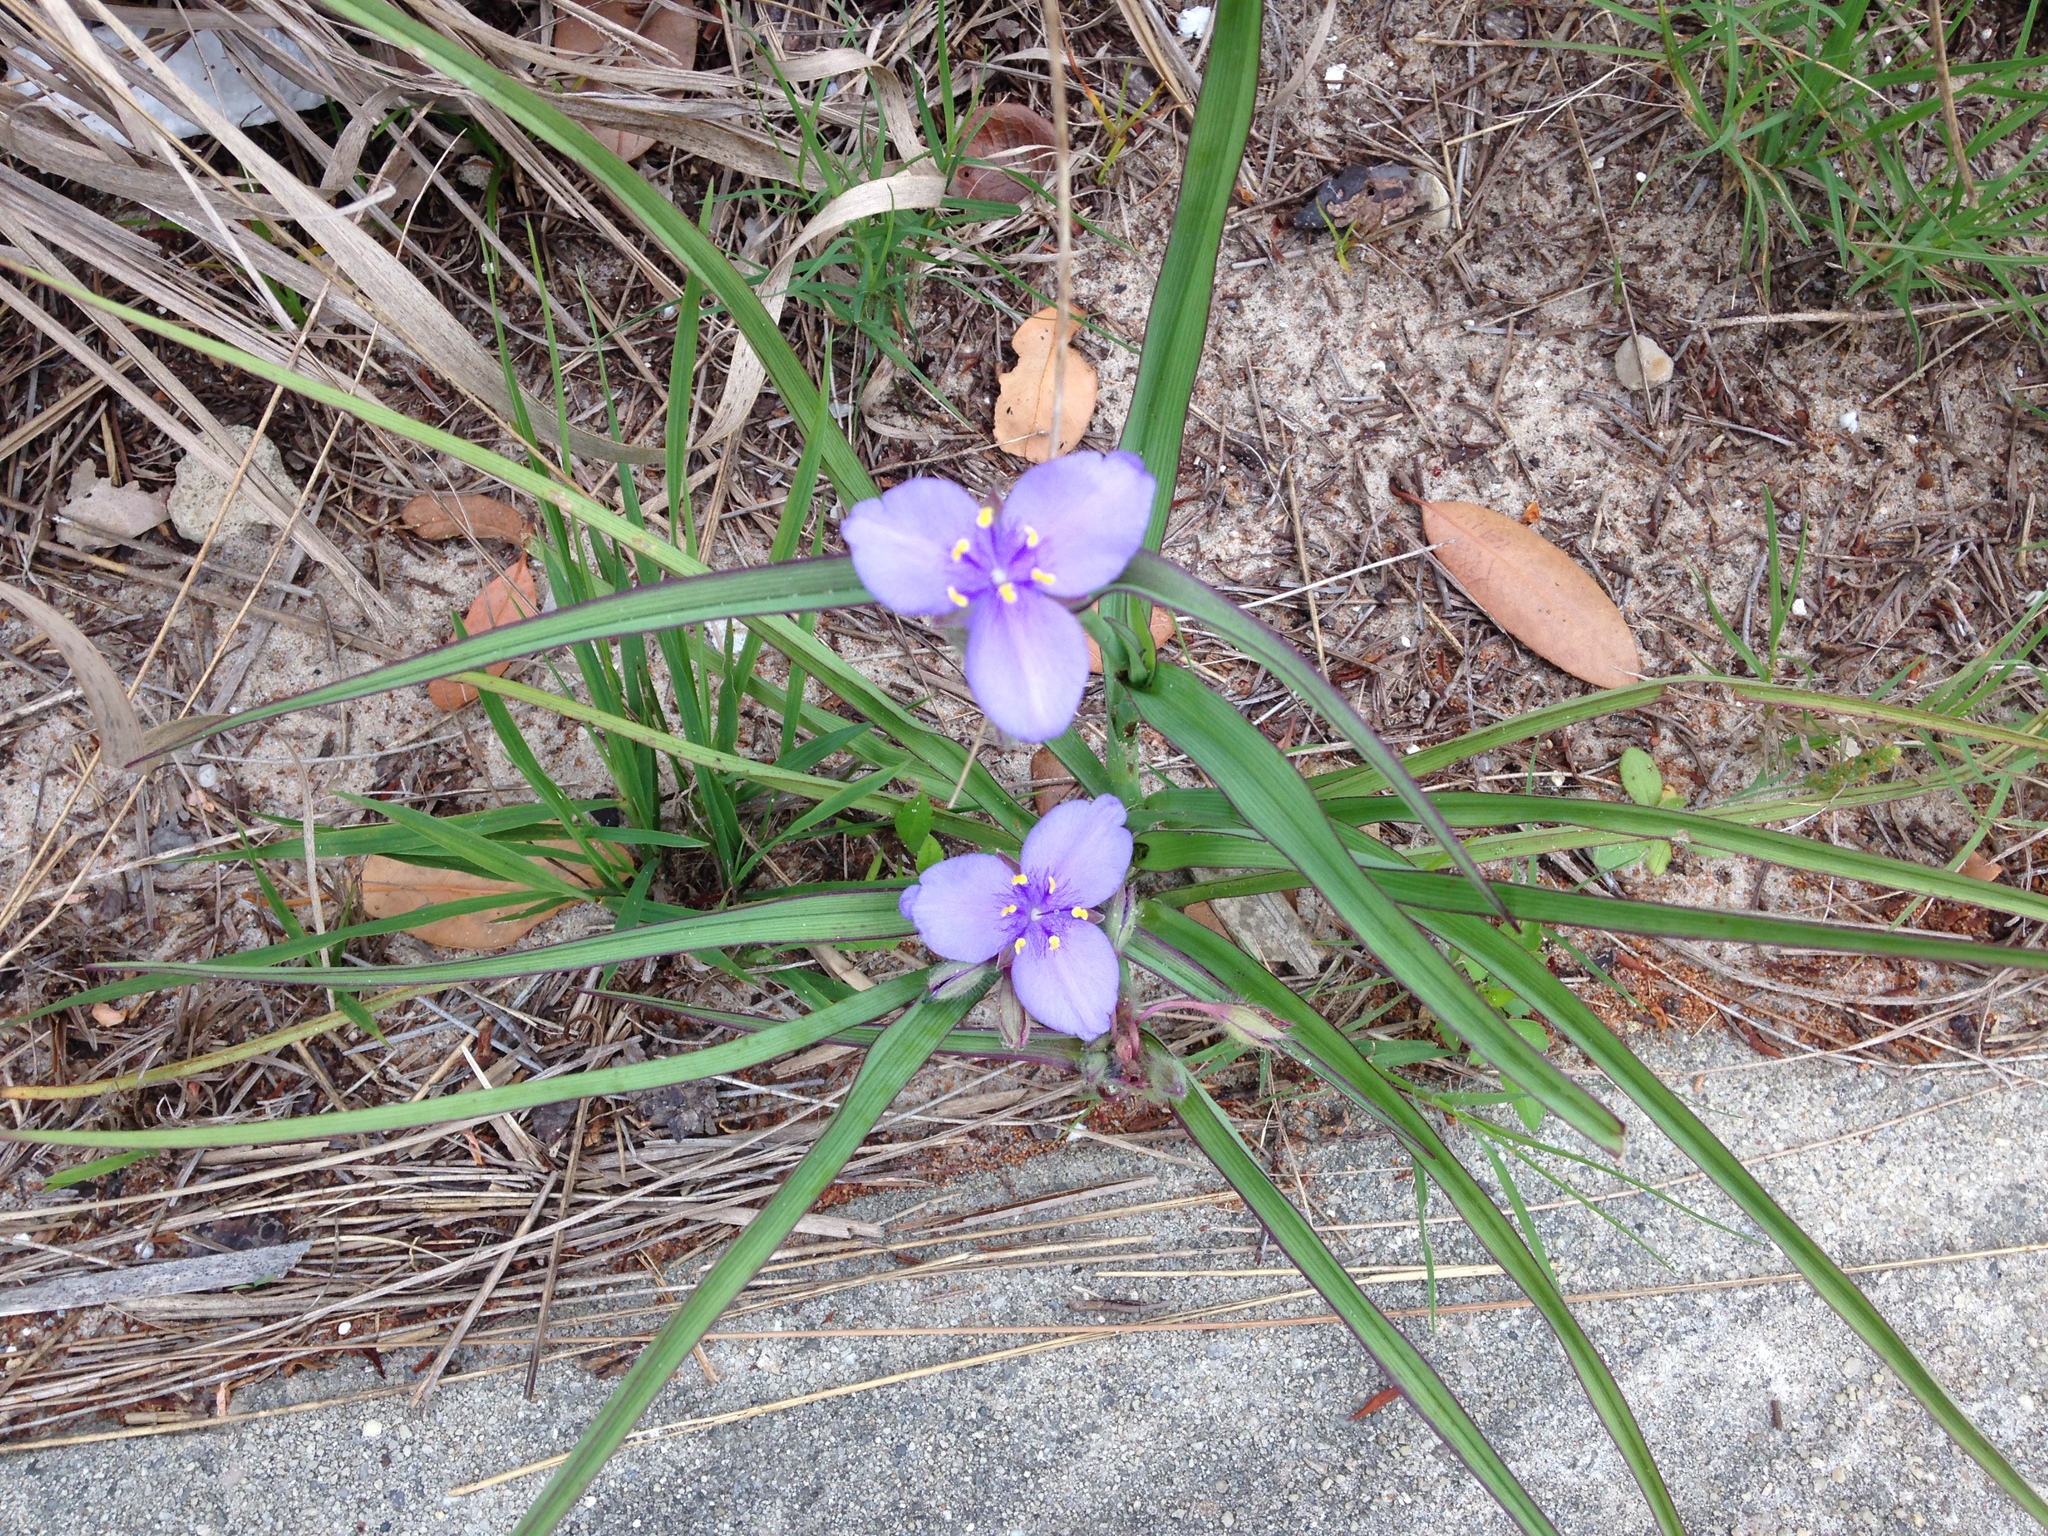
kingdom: Plantae
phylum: Tracheophyta
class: Liliopsida
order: Commelinales
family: Commelinaceae
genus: Tradescantia
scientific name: Tradescantia ohiensis
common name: Ohio spiderwort
